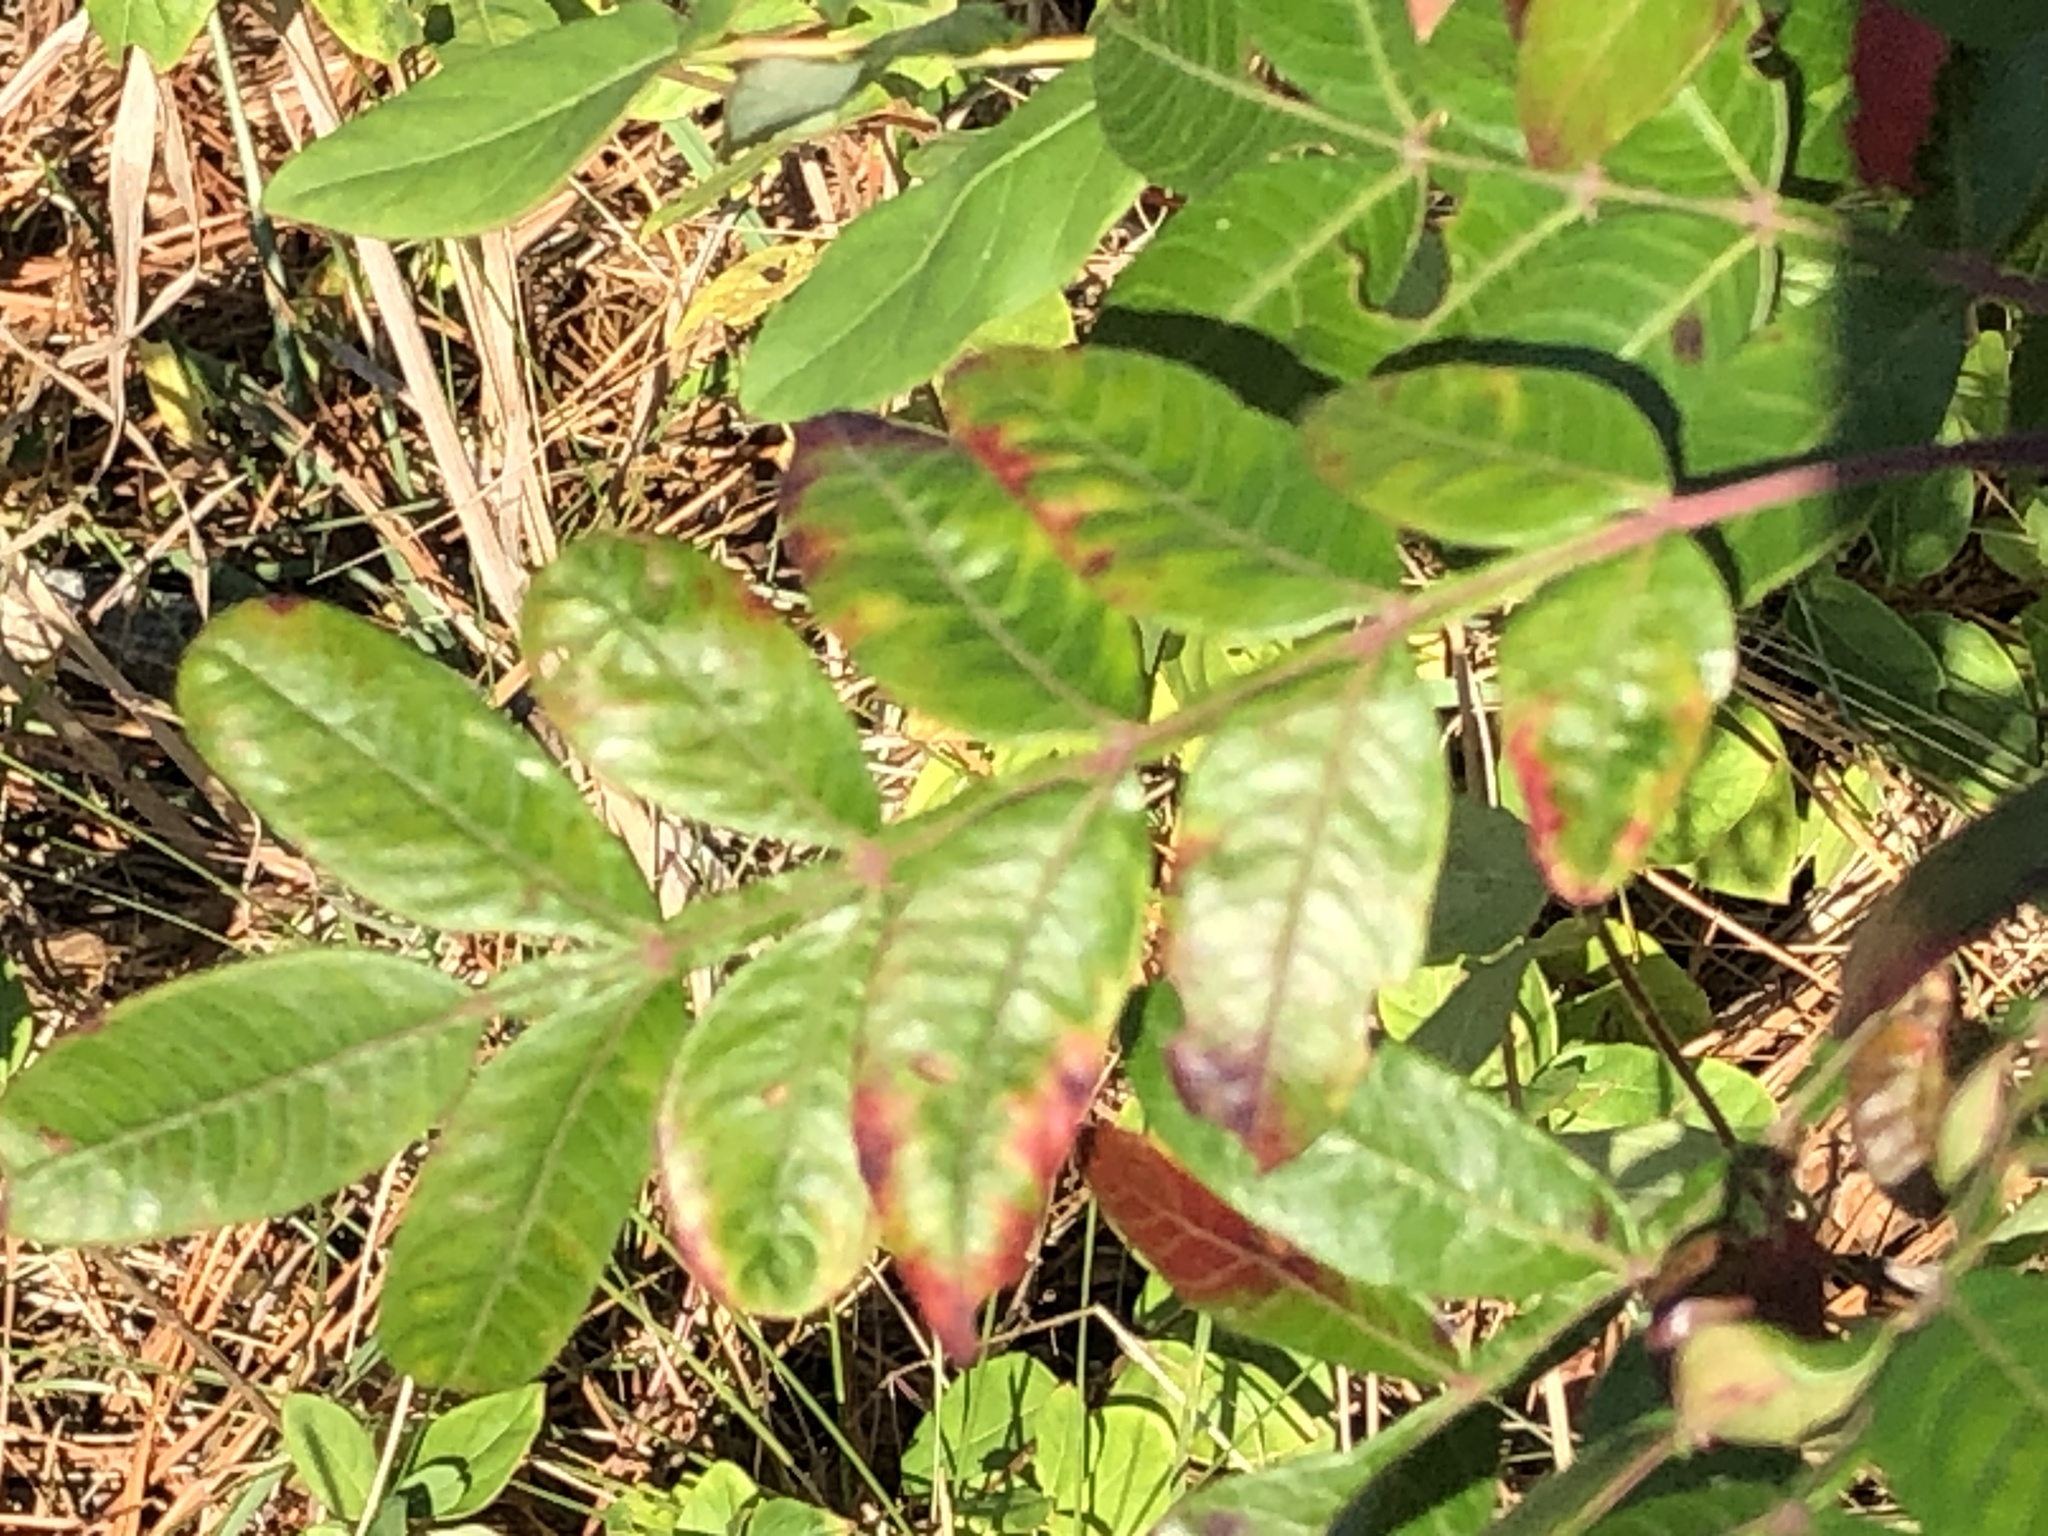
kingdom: Plantae
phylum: Tracheophyta
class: Magnoliopsida
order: Sapindales
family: Anacardiaceae
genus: Rhus
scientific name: Rhus copallina
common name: Shining sumac
